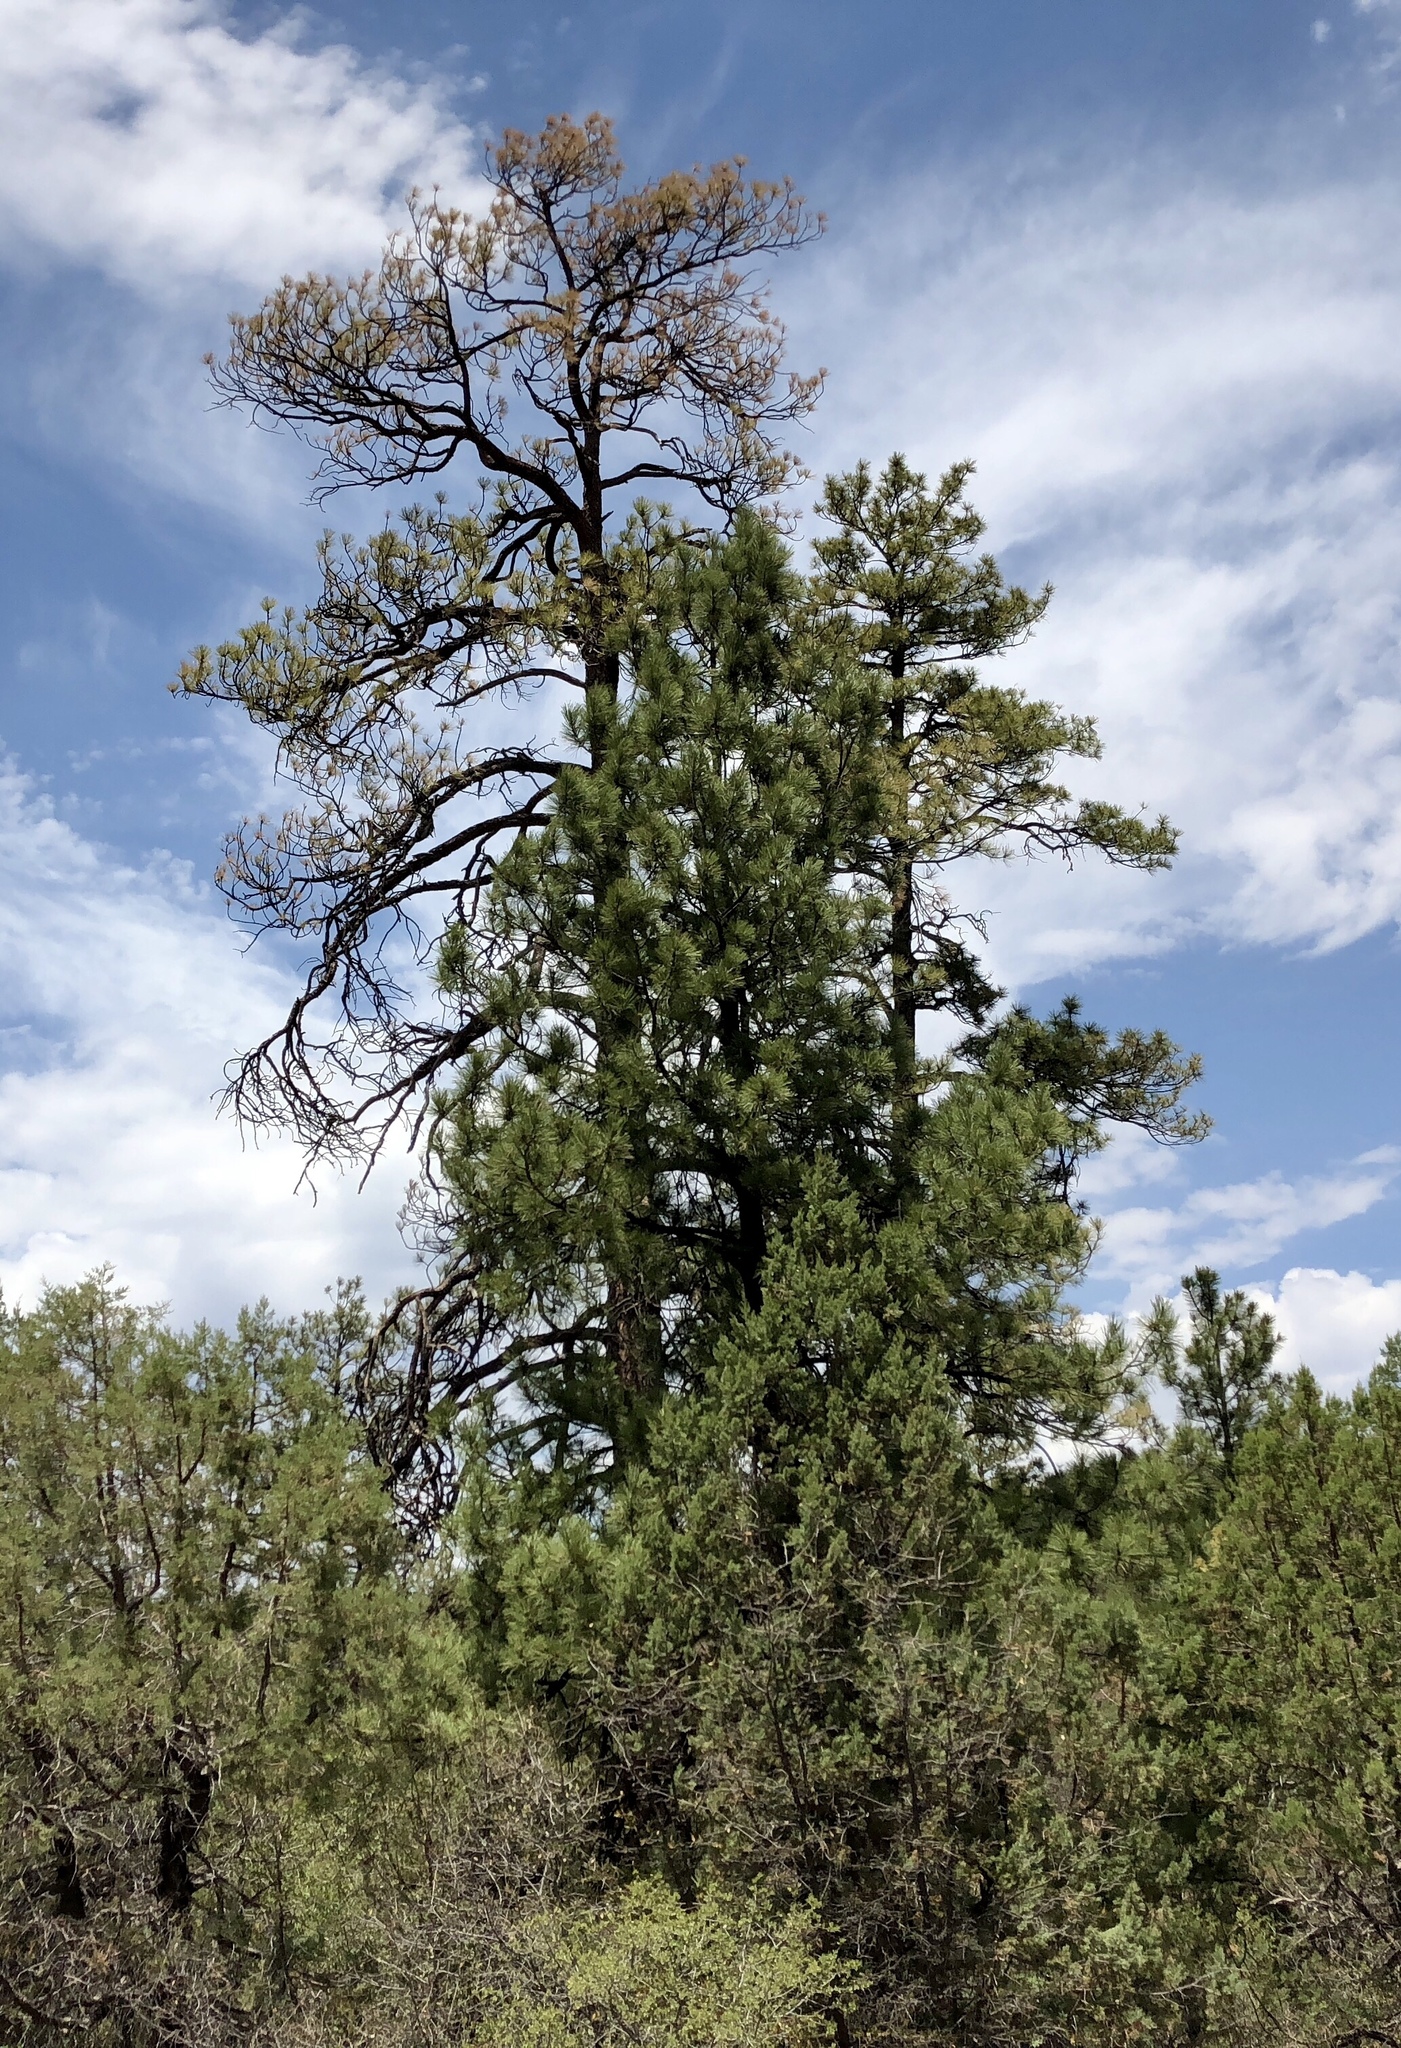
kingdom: Plantae
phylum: Tracheophyta
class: Pinopsida
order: Pinales
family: Pinaceae
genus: Pinus
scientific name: Pinus ponderosa
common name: Western yellow-pine
